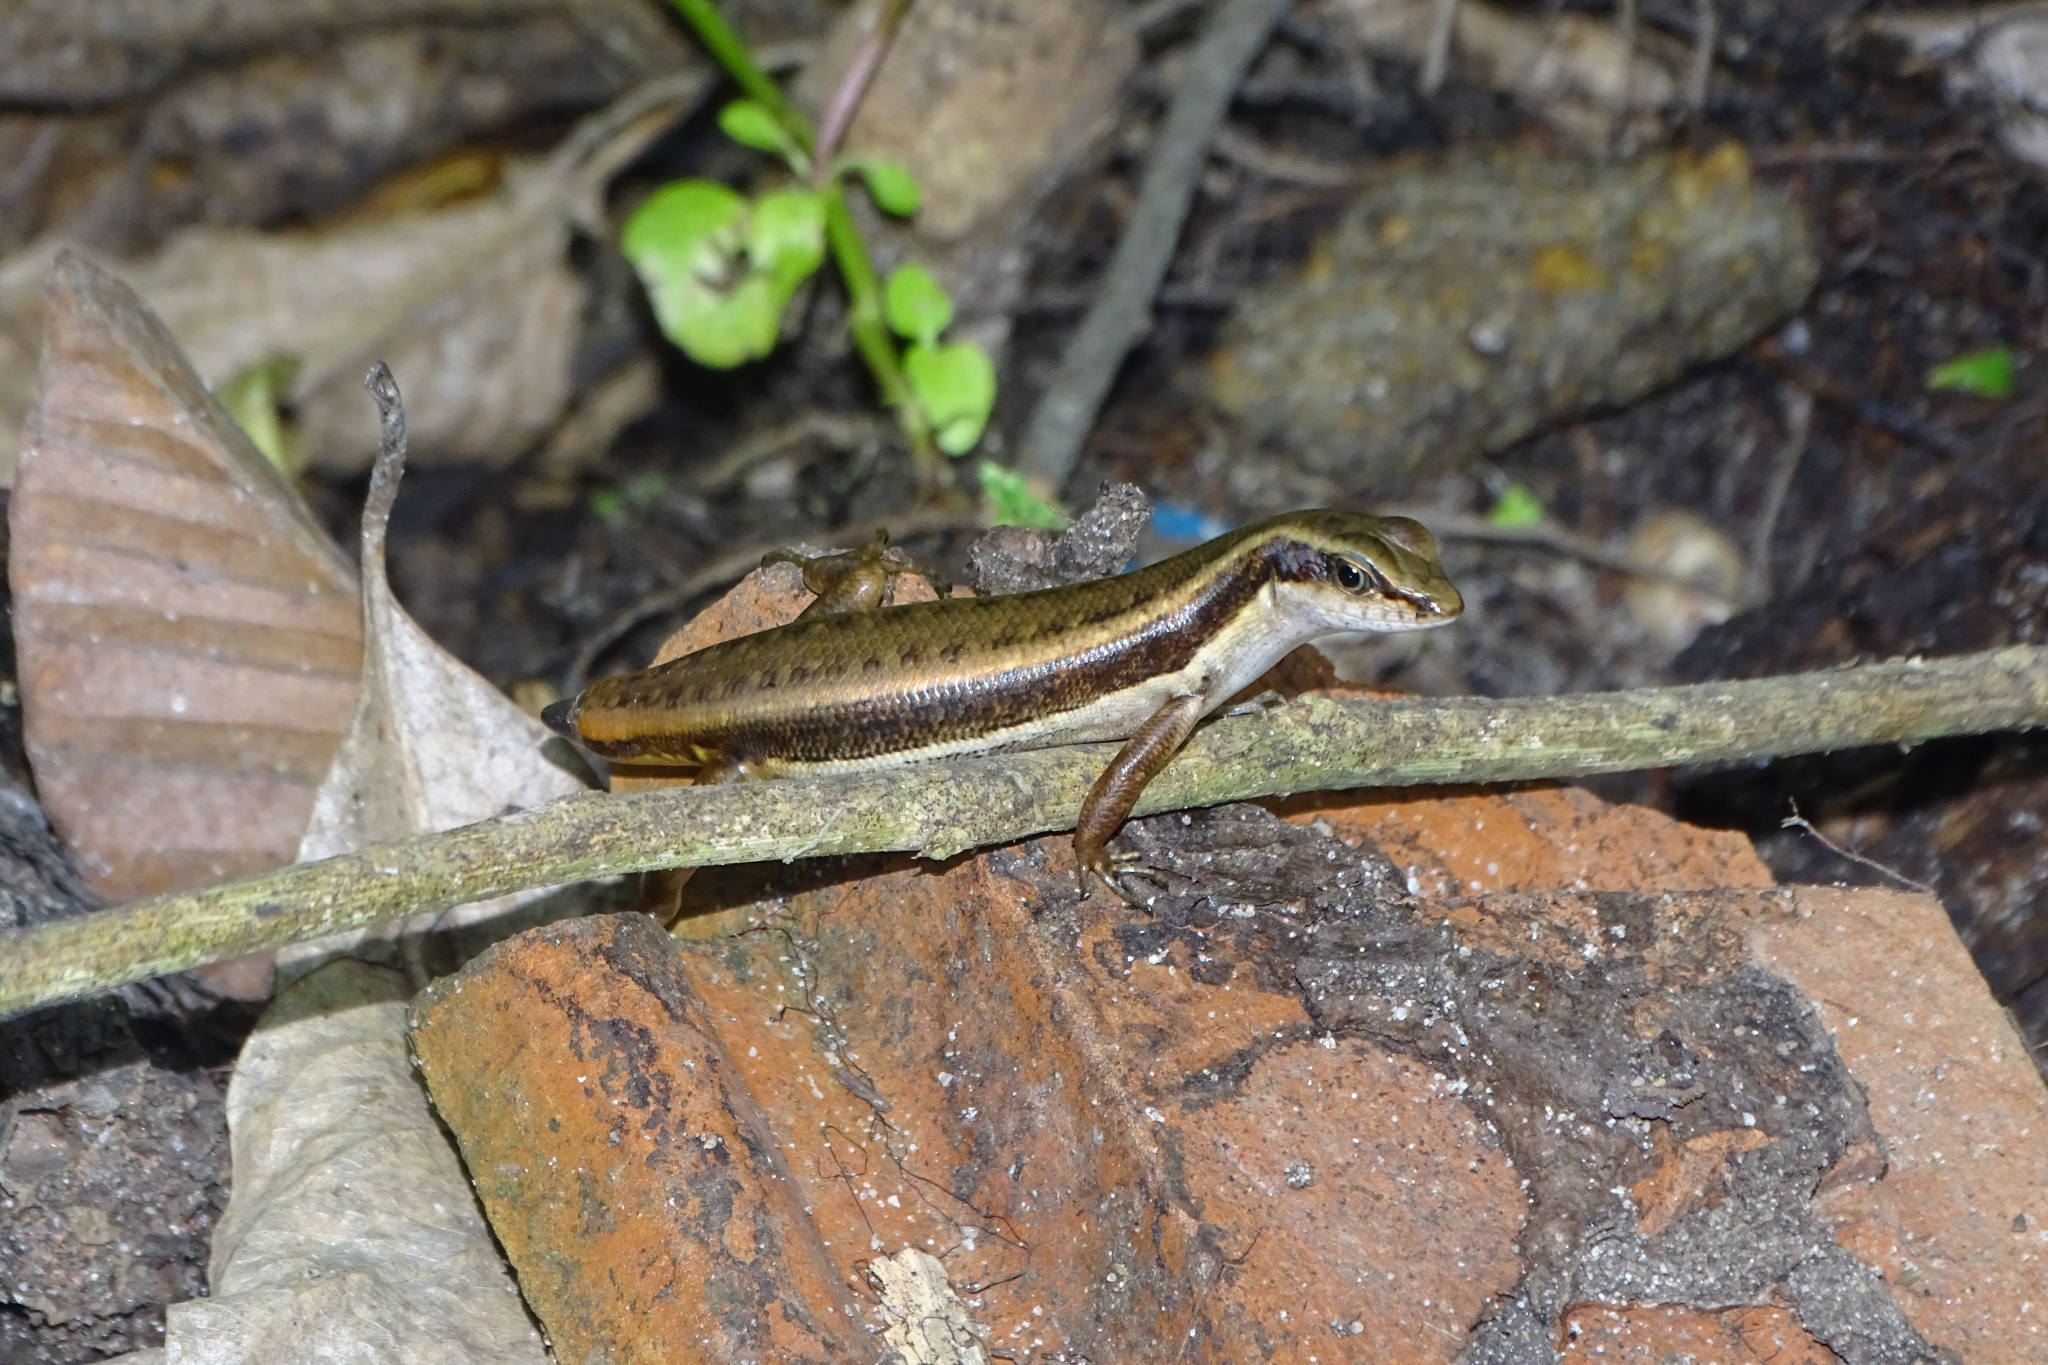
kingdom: Animalia
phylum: Chordata
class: Squamata
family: Scincidae
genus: Sphenomorphus
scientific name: Sphenomorphus dussumieri
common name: Dussumier's forest skink
